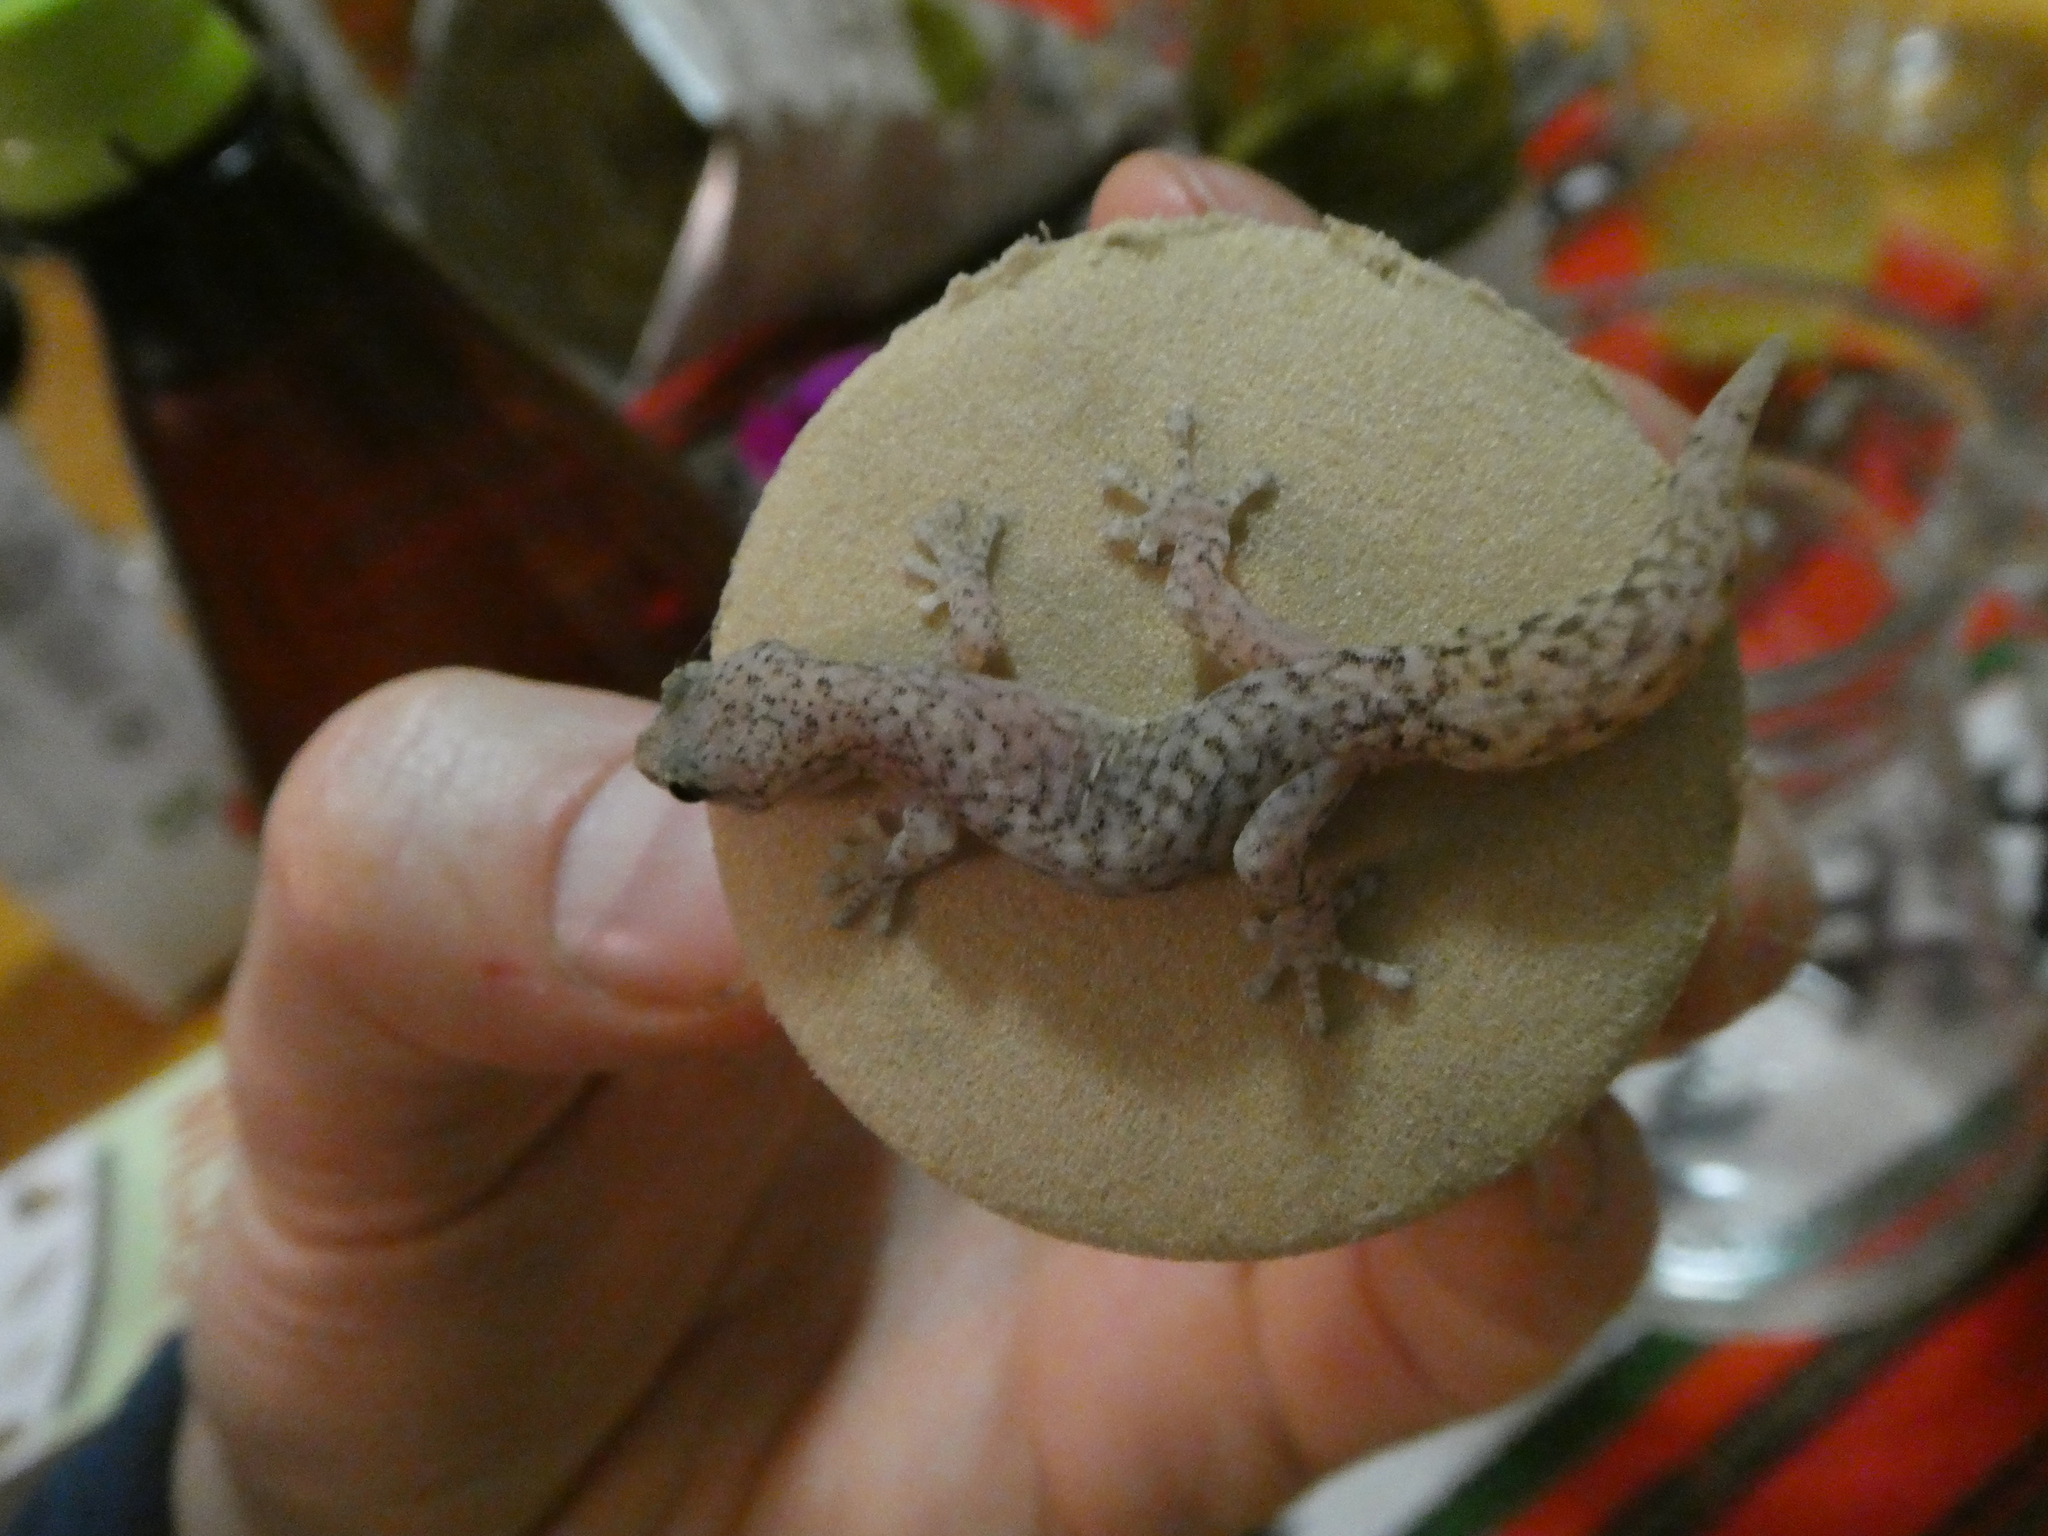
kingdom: Animalia
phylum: Chordata
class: Squamata
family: Gekkonidae
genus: Afrogecko
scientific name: Afrogecko porphyreus
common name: Marbled leaf-toed gecko
